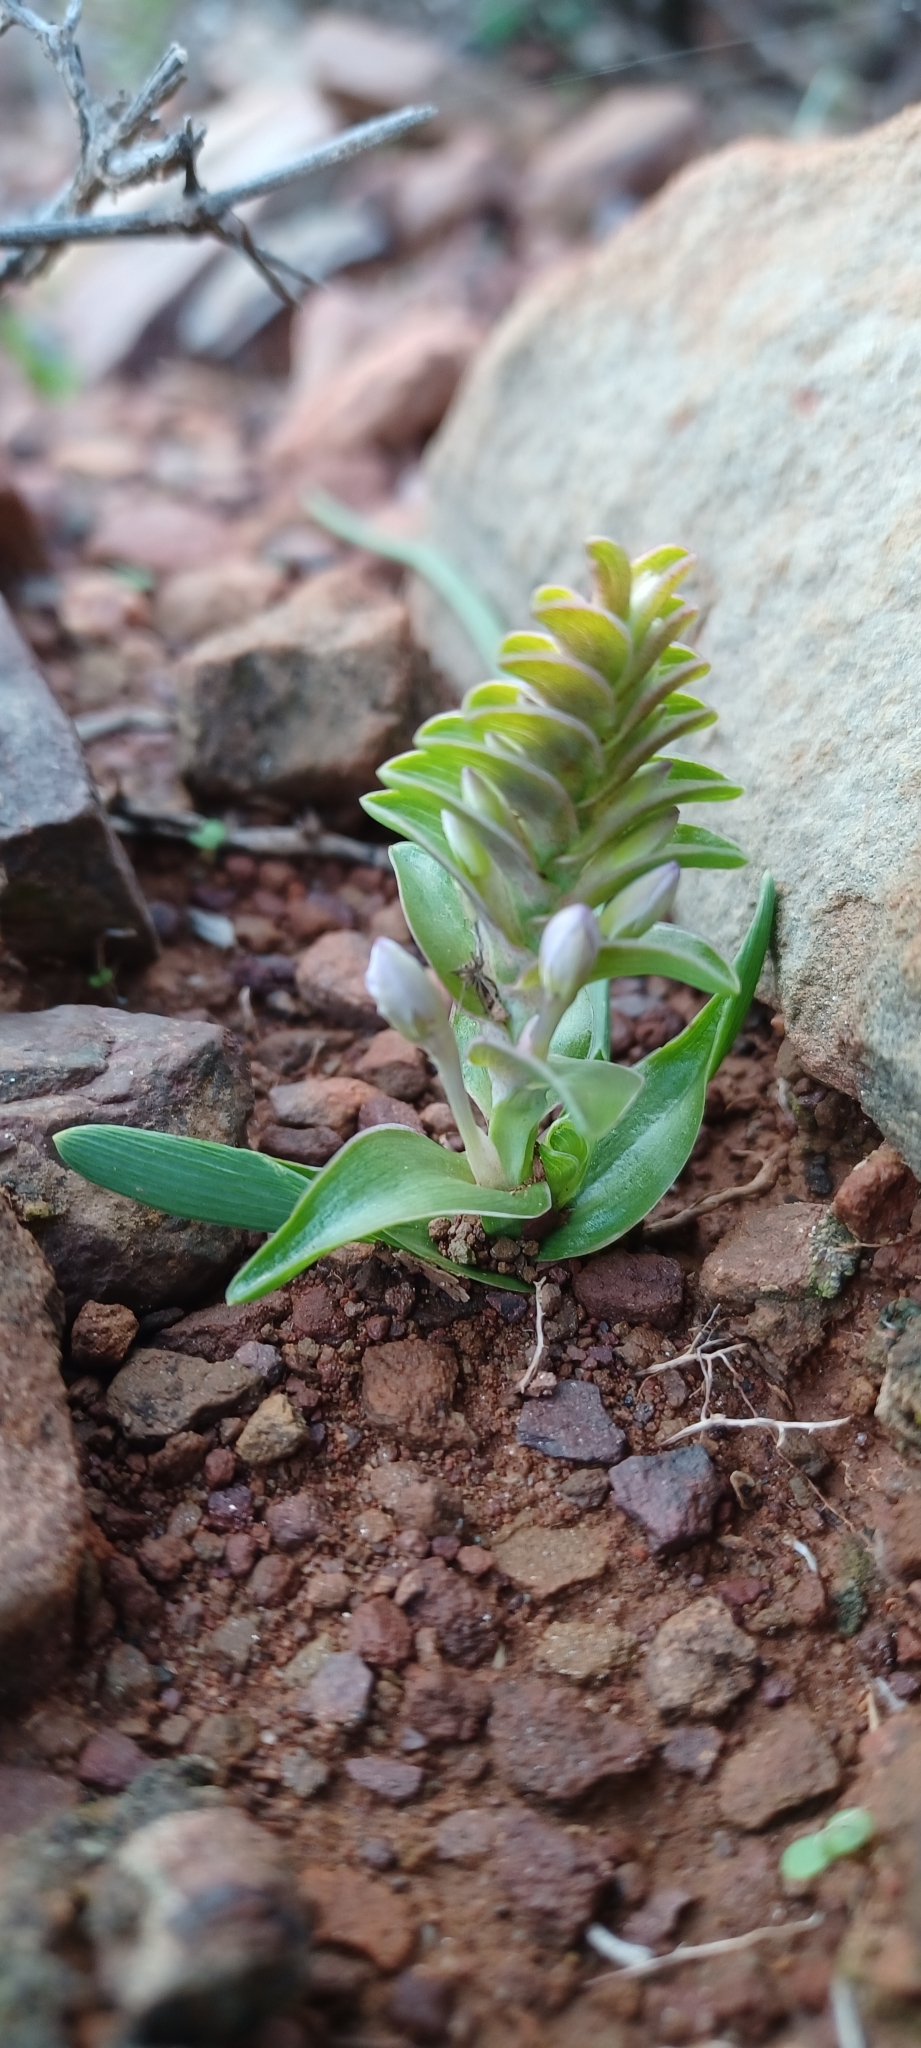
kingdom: Plantae
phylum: Tracheophyta
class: Liliopsida
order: Asparagales
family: Iridaceae
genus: Lapeirousia
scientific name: Lapeirousia pyramidalis
